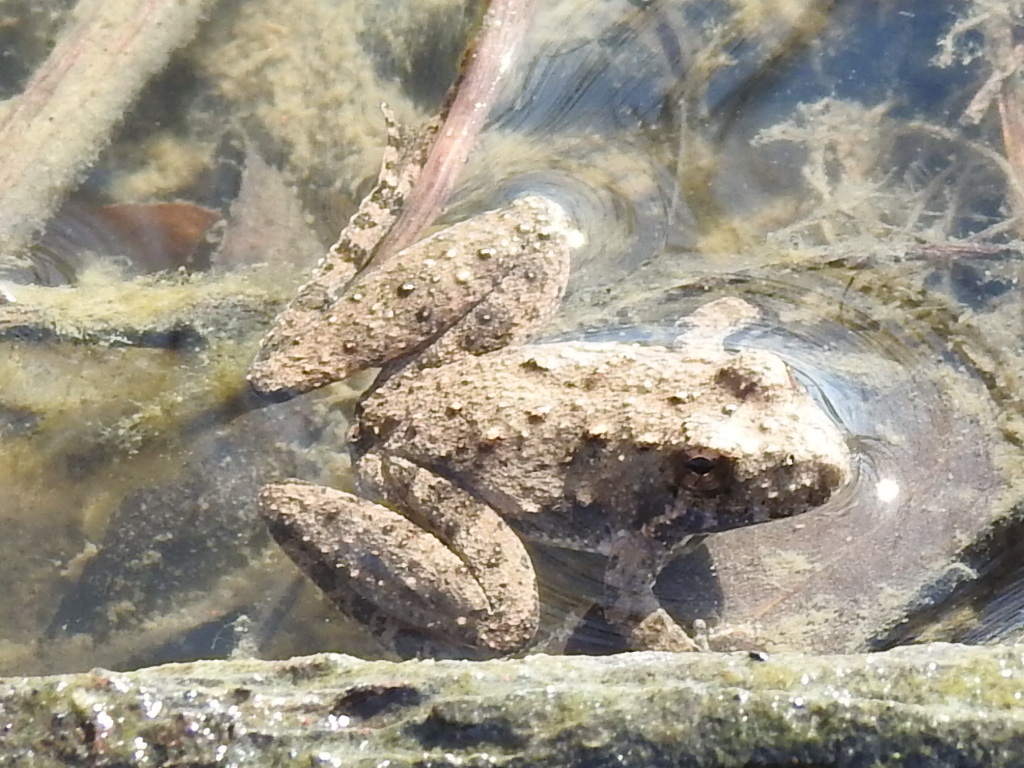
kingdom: Animalia
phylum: Chordata
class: Amphibia
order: Anura
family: Hylidae
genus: Acris
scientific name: Acris blanchardi
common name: Blanchard's cricket frog
